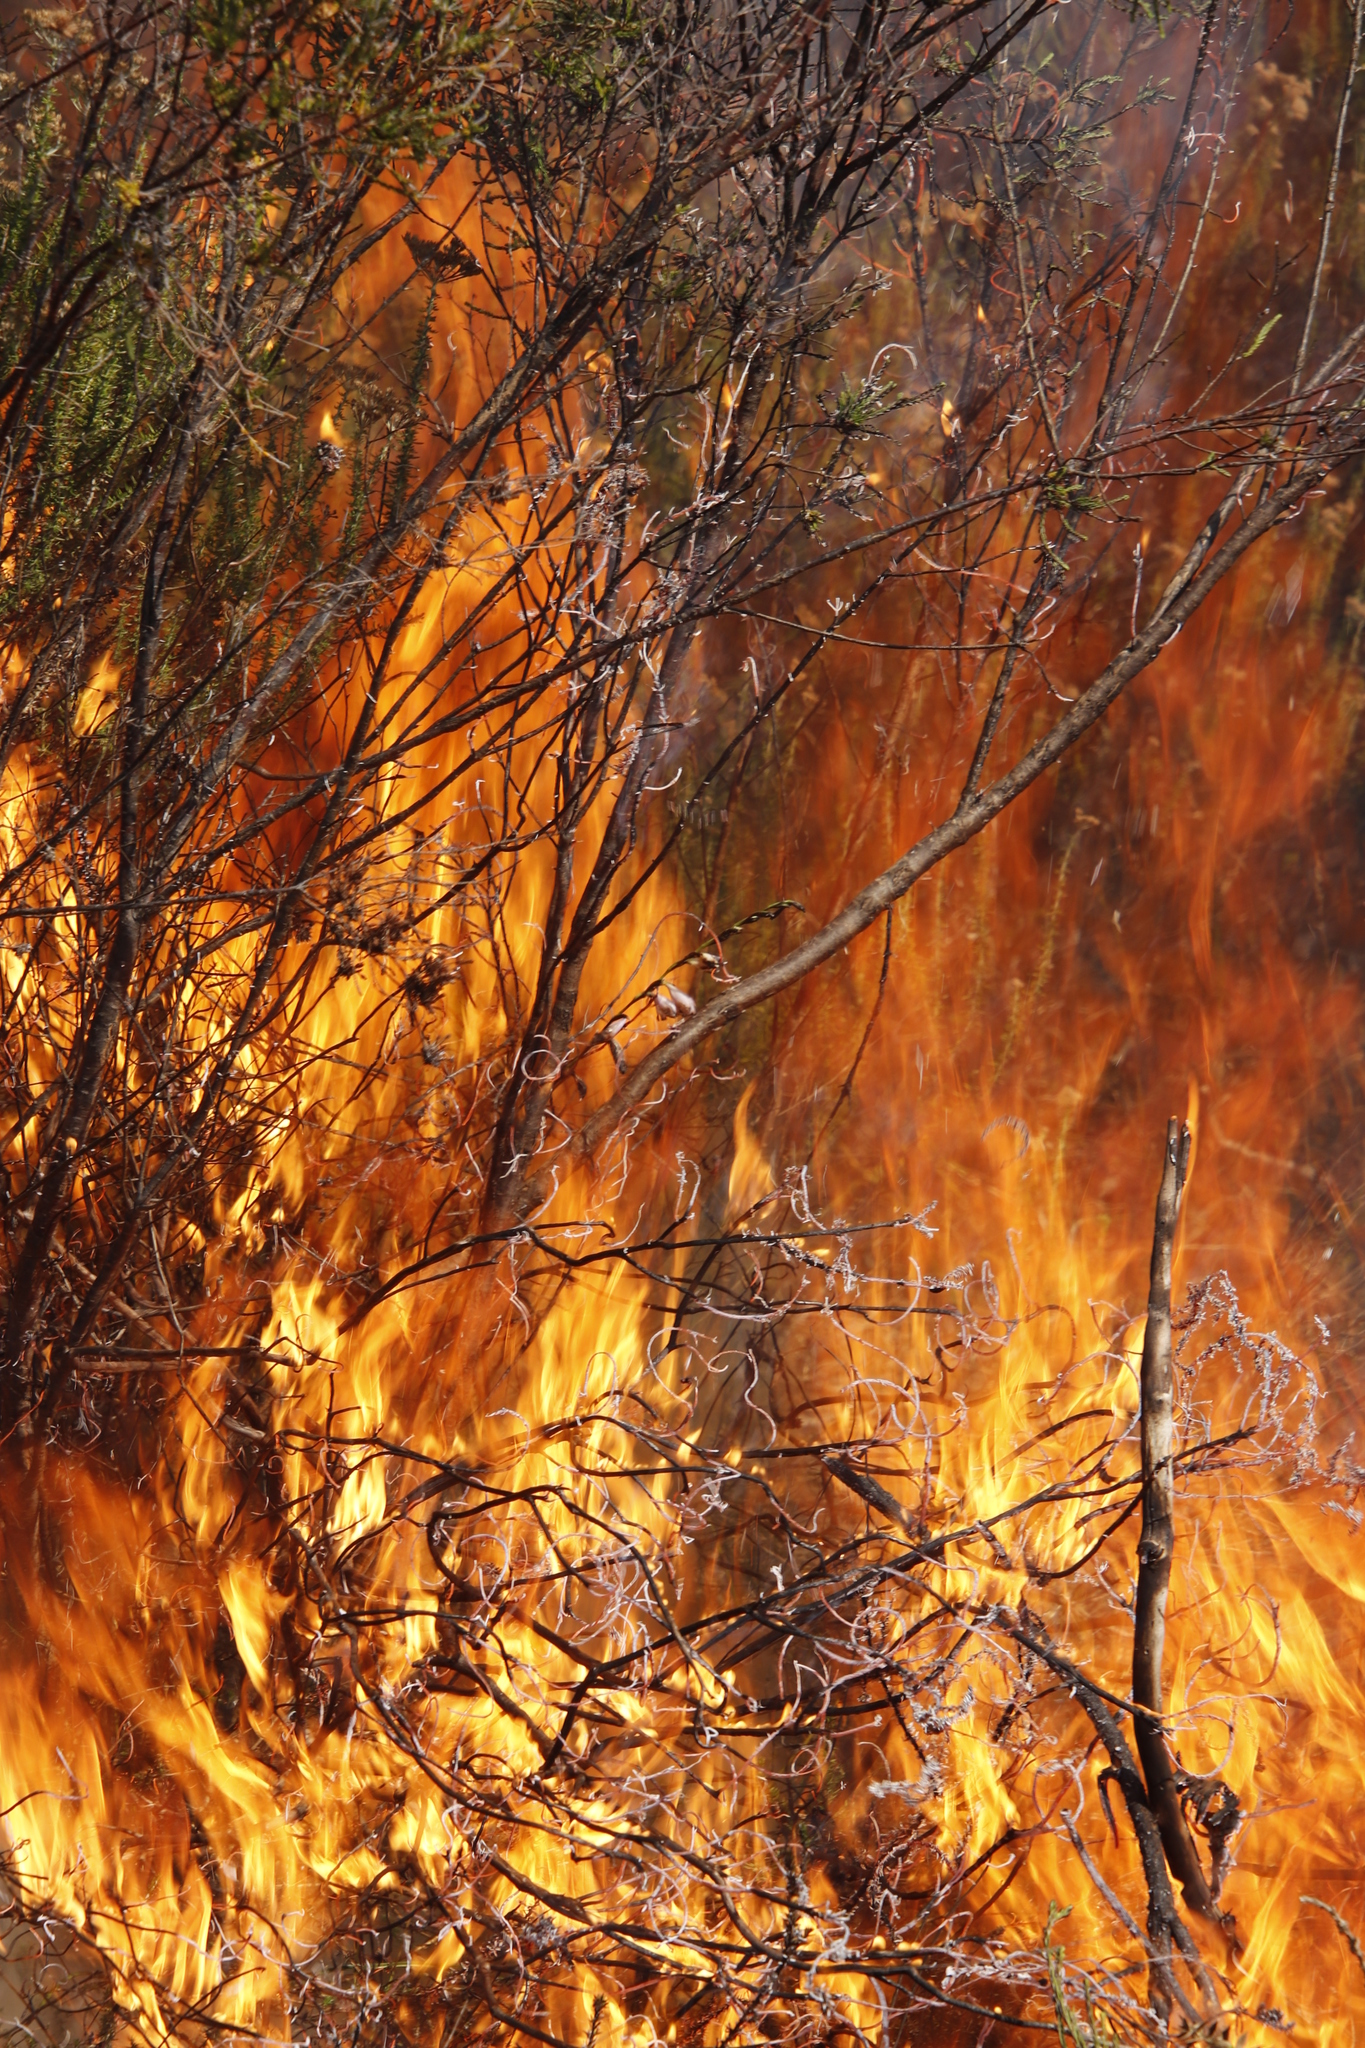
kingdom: Plantae
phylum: Tracheophyta
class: Liliopsida
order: Asparagales
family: Iridaceae
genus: Gladiolus
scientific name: Gladiolus brevifolius
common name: March pypie
